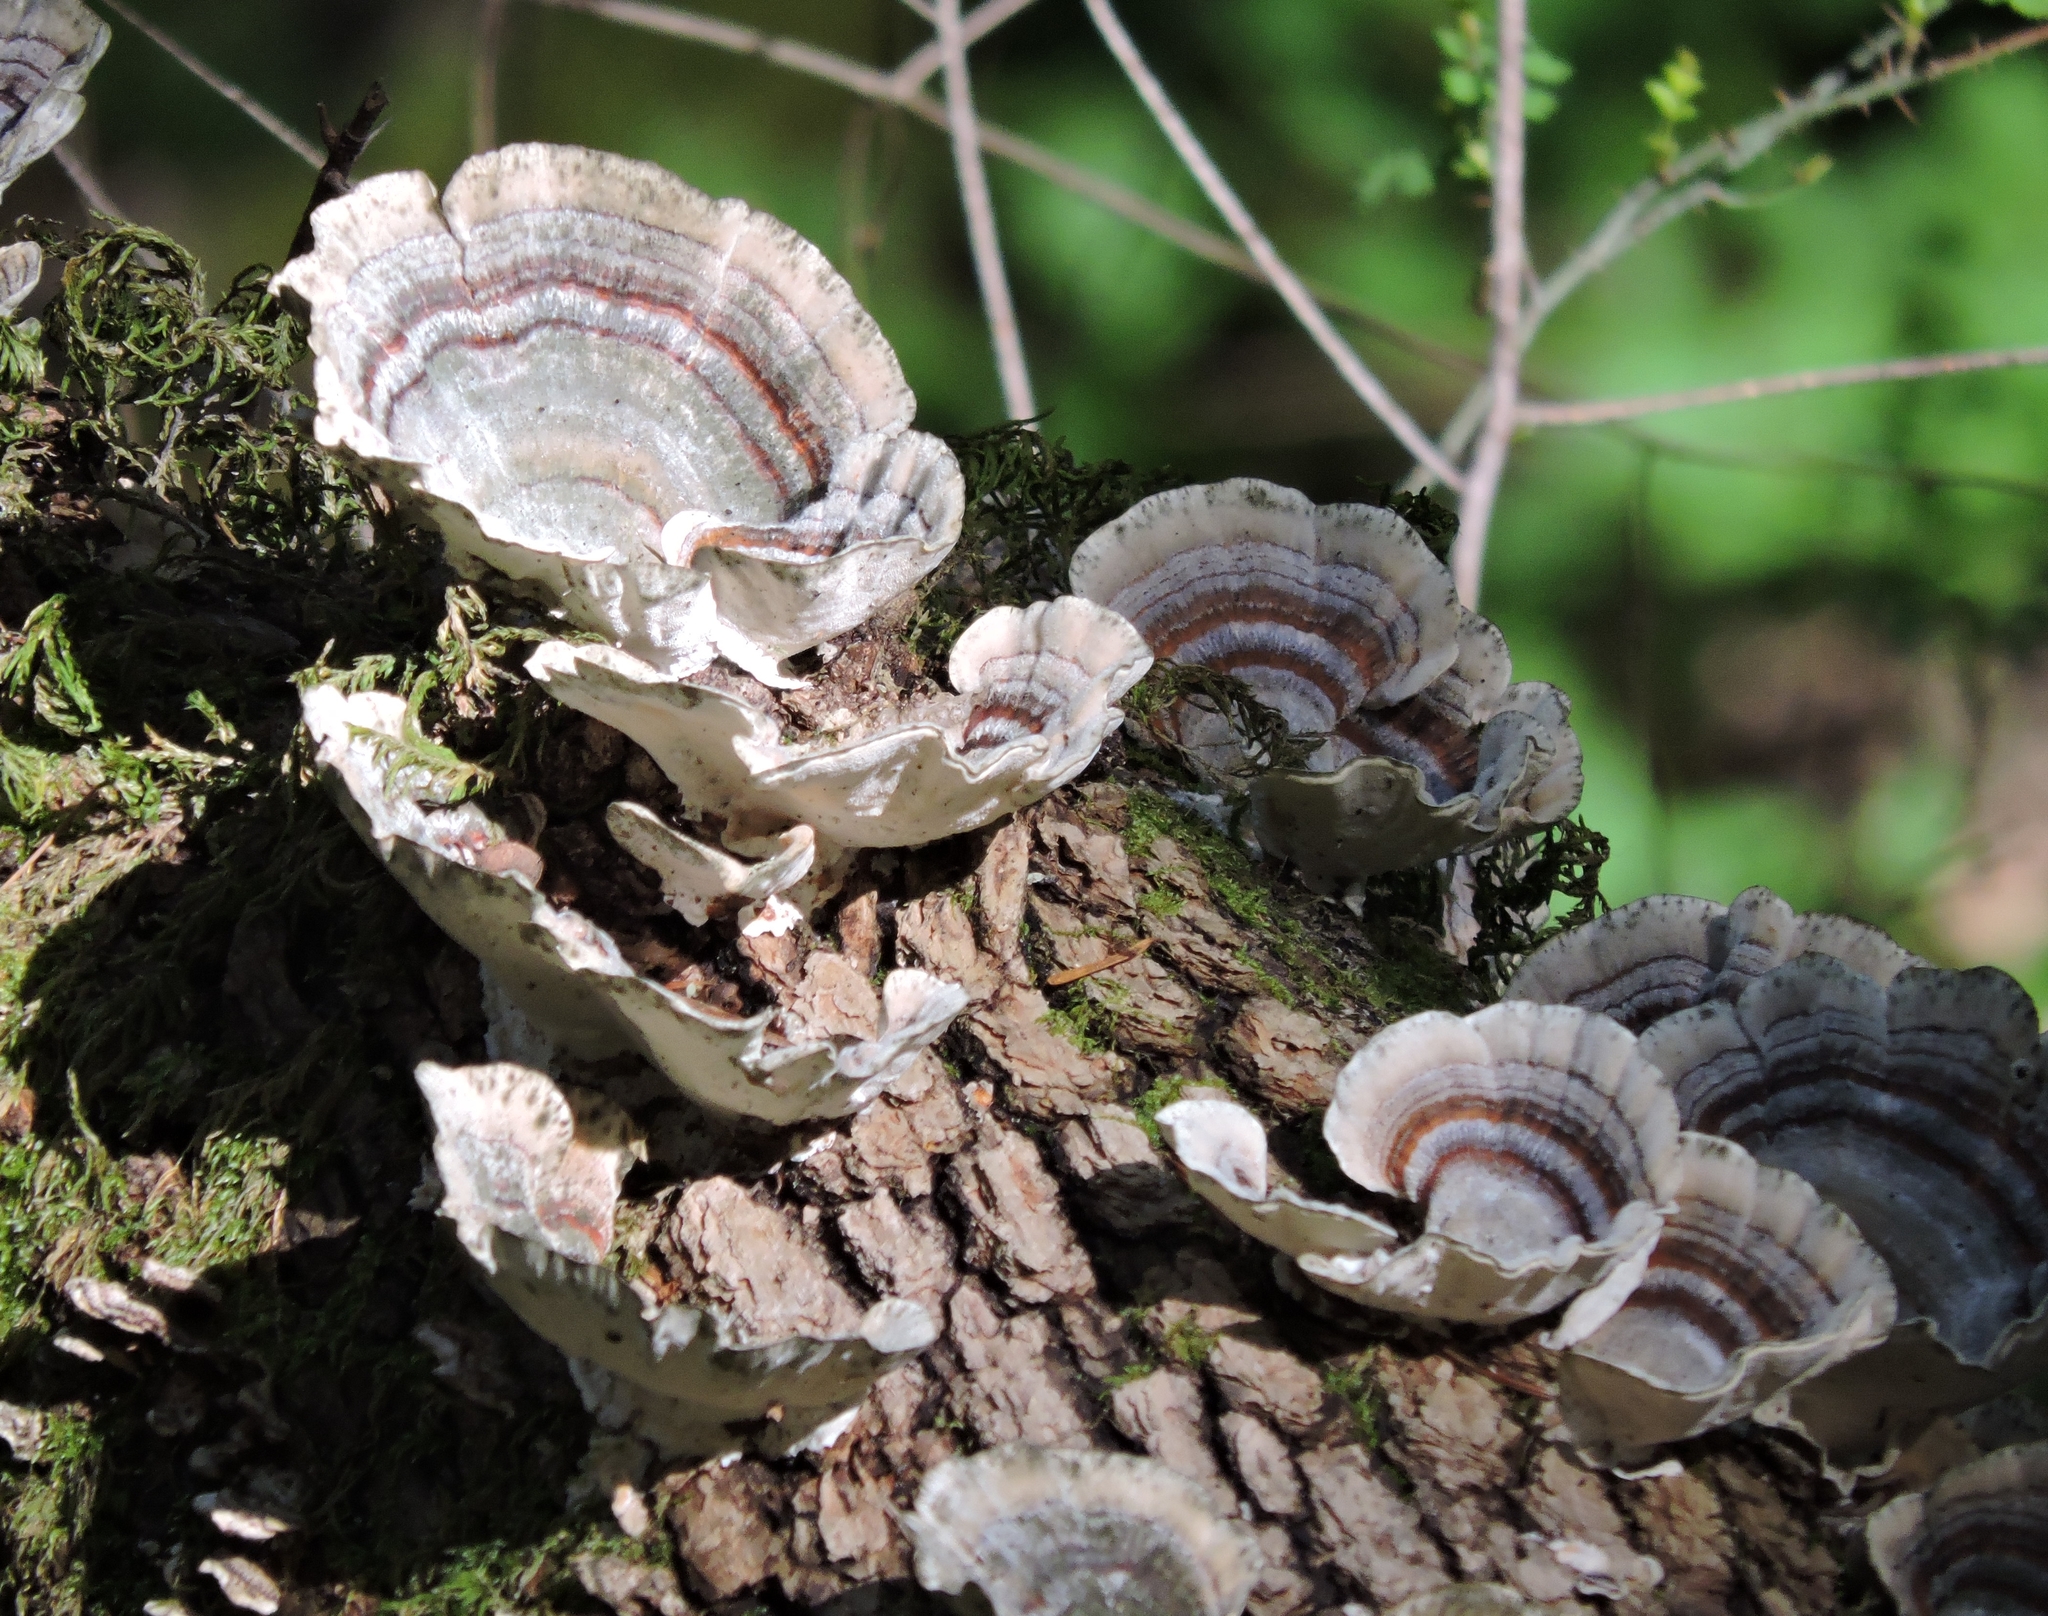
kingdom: Fungi
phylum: Basidiomycota
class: Agaricomycetes
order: Polyporales
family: Polyporaceae
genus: Trametes
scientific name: Trametes versicolor
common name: Turkeytail
